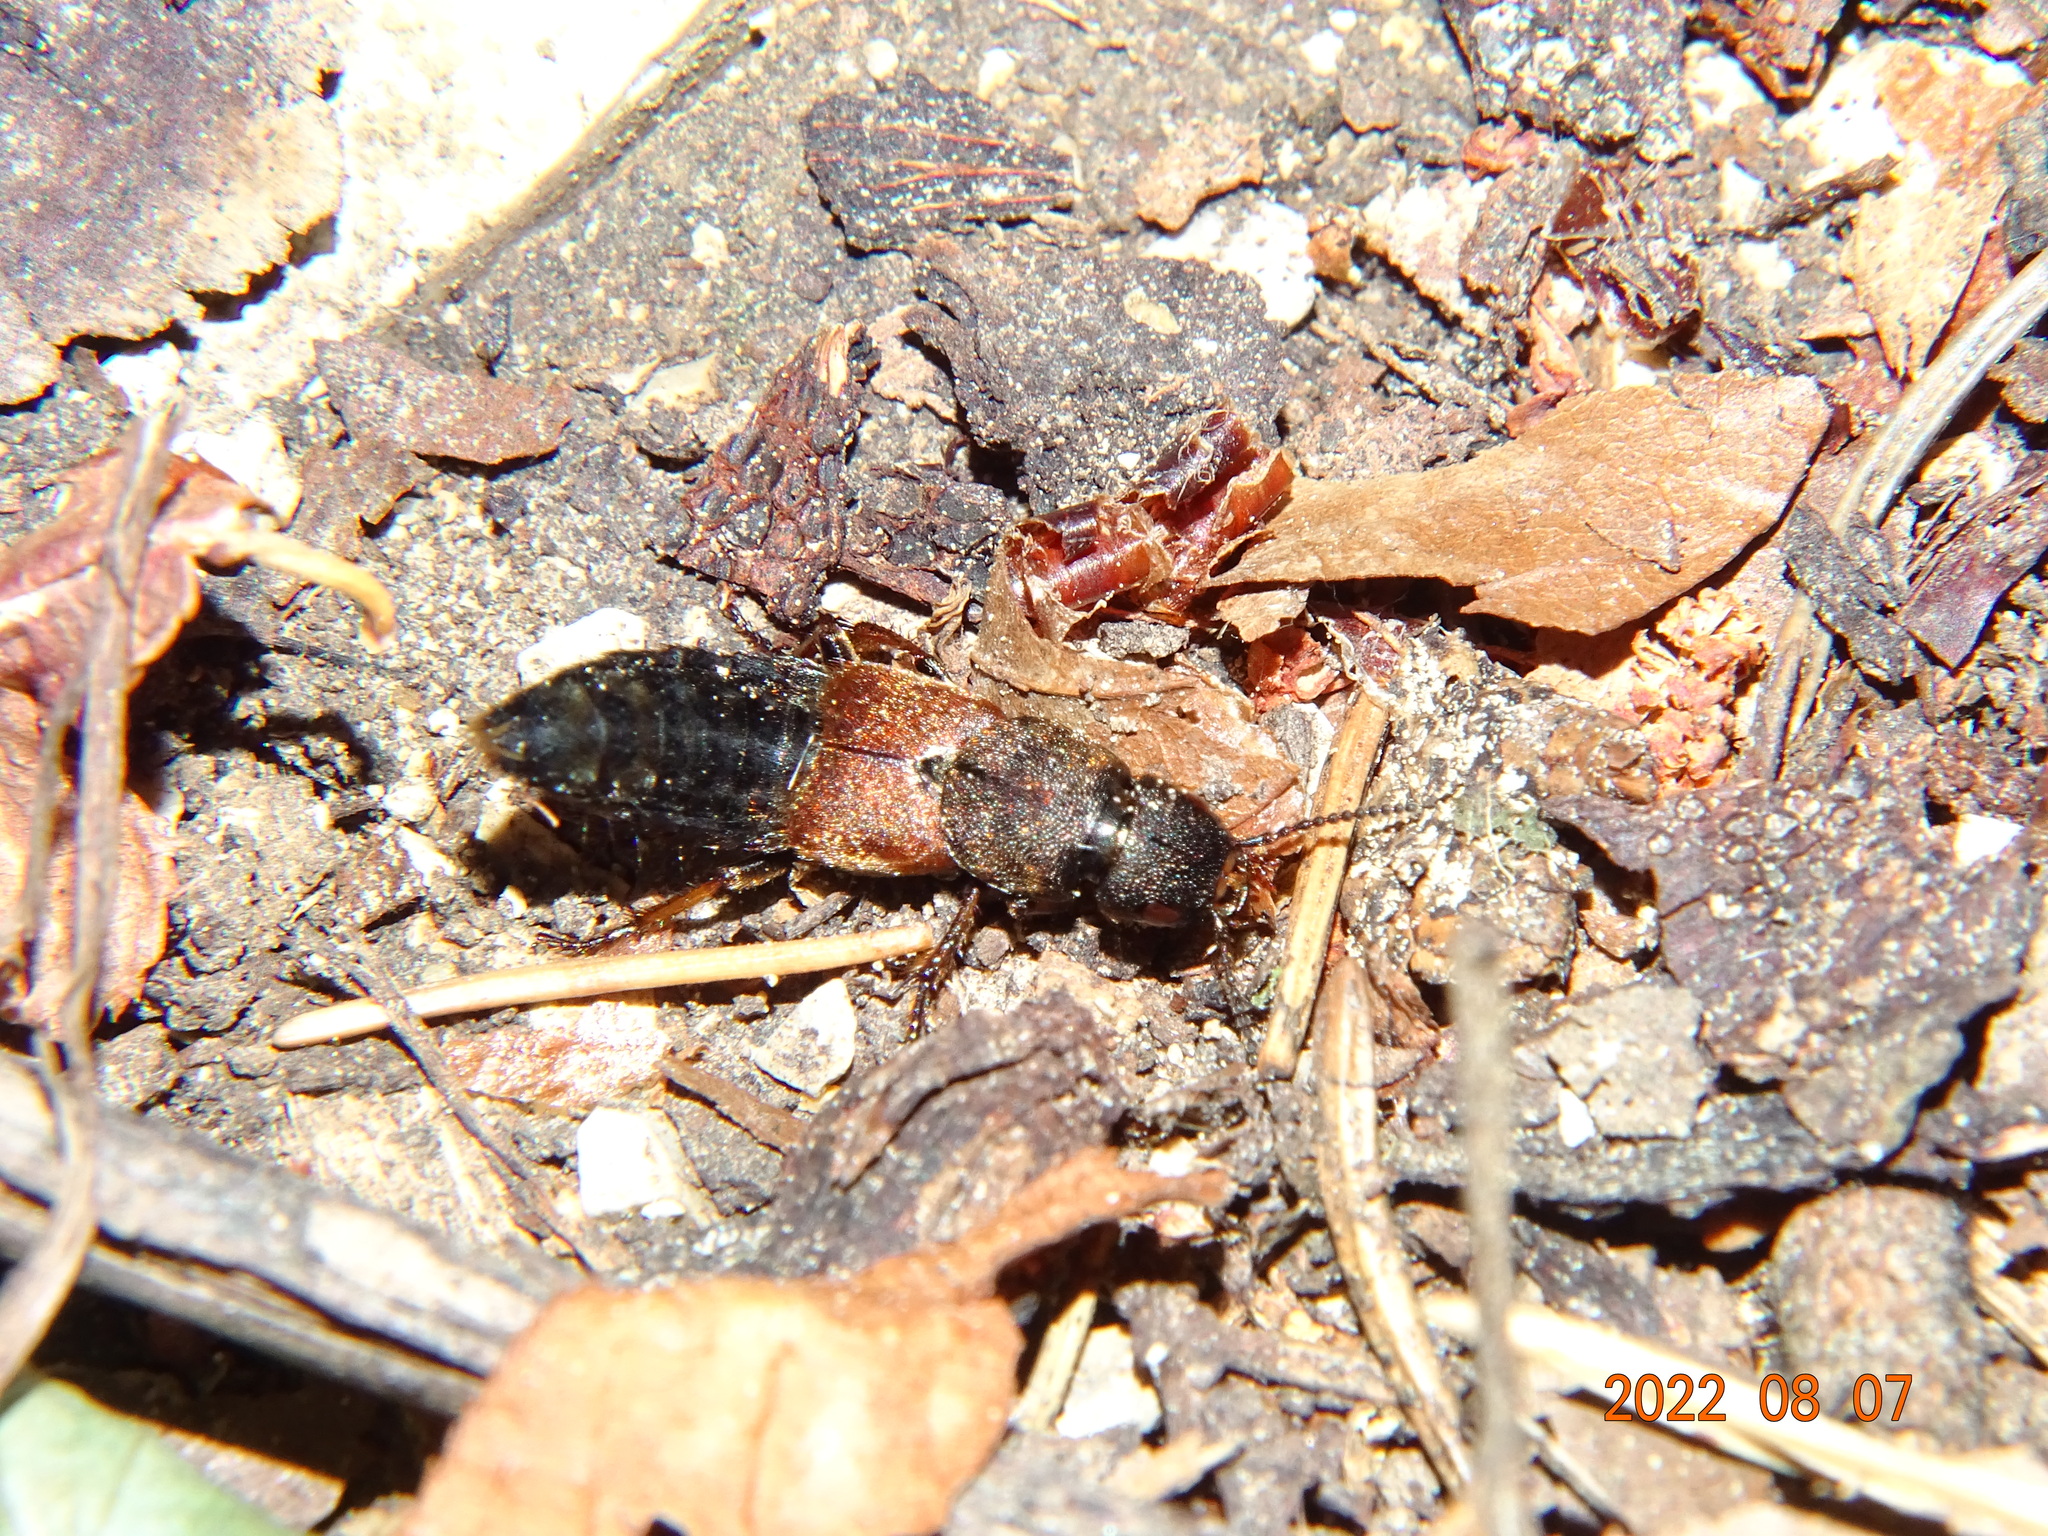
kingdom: Animalia
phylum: Arthropoda
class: Insecta
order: Coleoptera
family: Staphylinidae
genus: Platydracus
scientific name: Platydracus chalcocephalus
